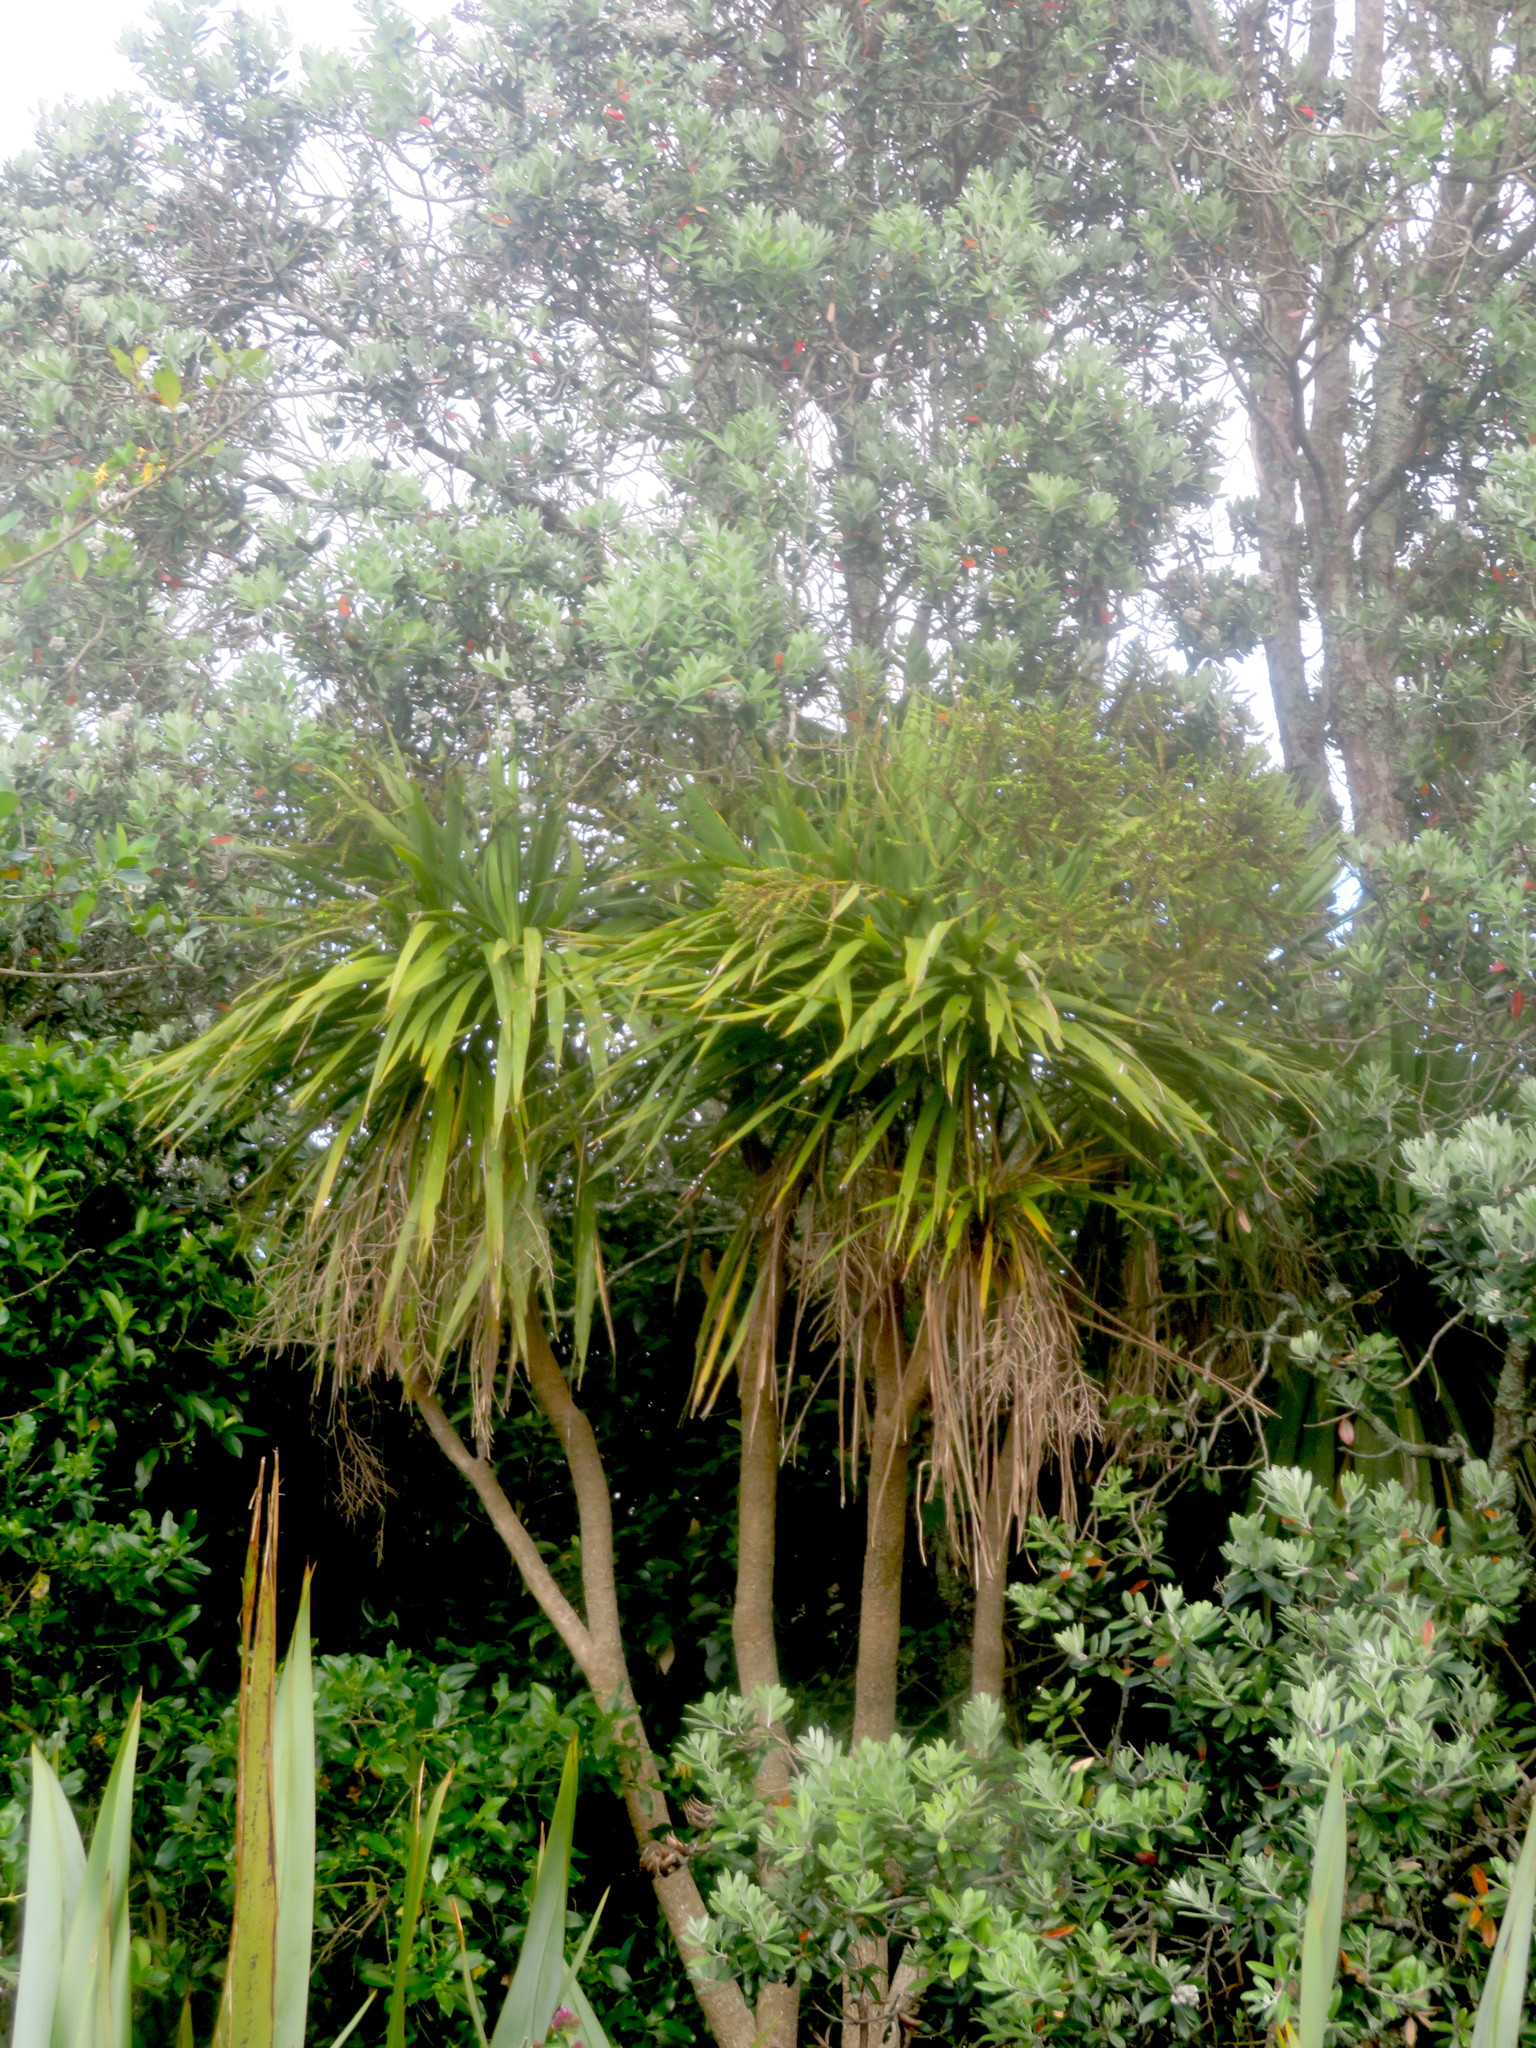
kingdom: Plantae
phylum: Tracheophyta
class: Liliopsida
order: Asparagales
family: Asparagaceae
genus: Cordyline
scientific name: Cordyline australis
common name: Cabbage-palm
